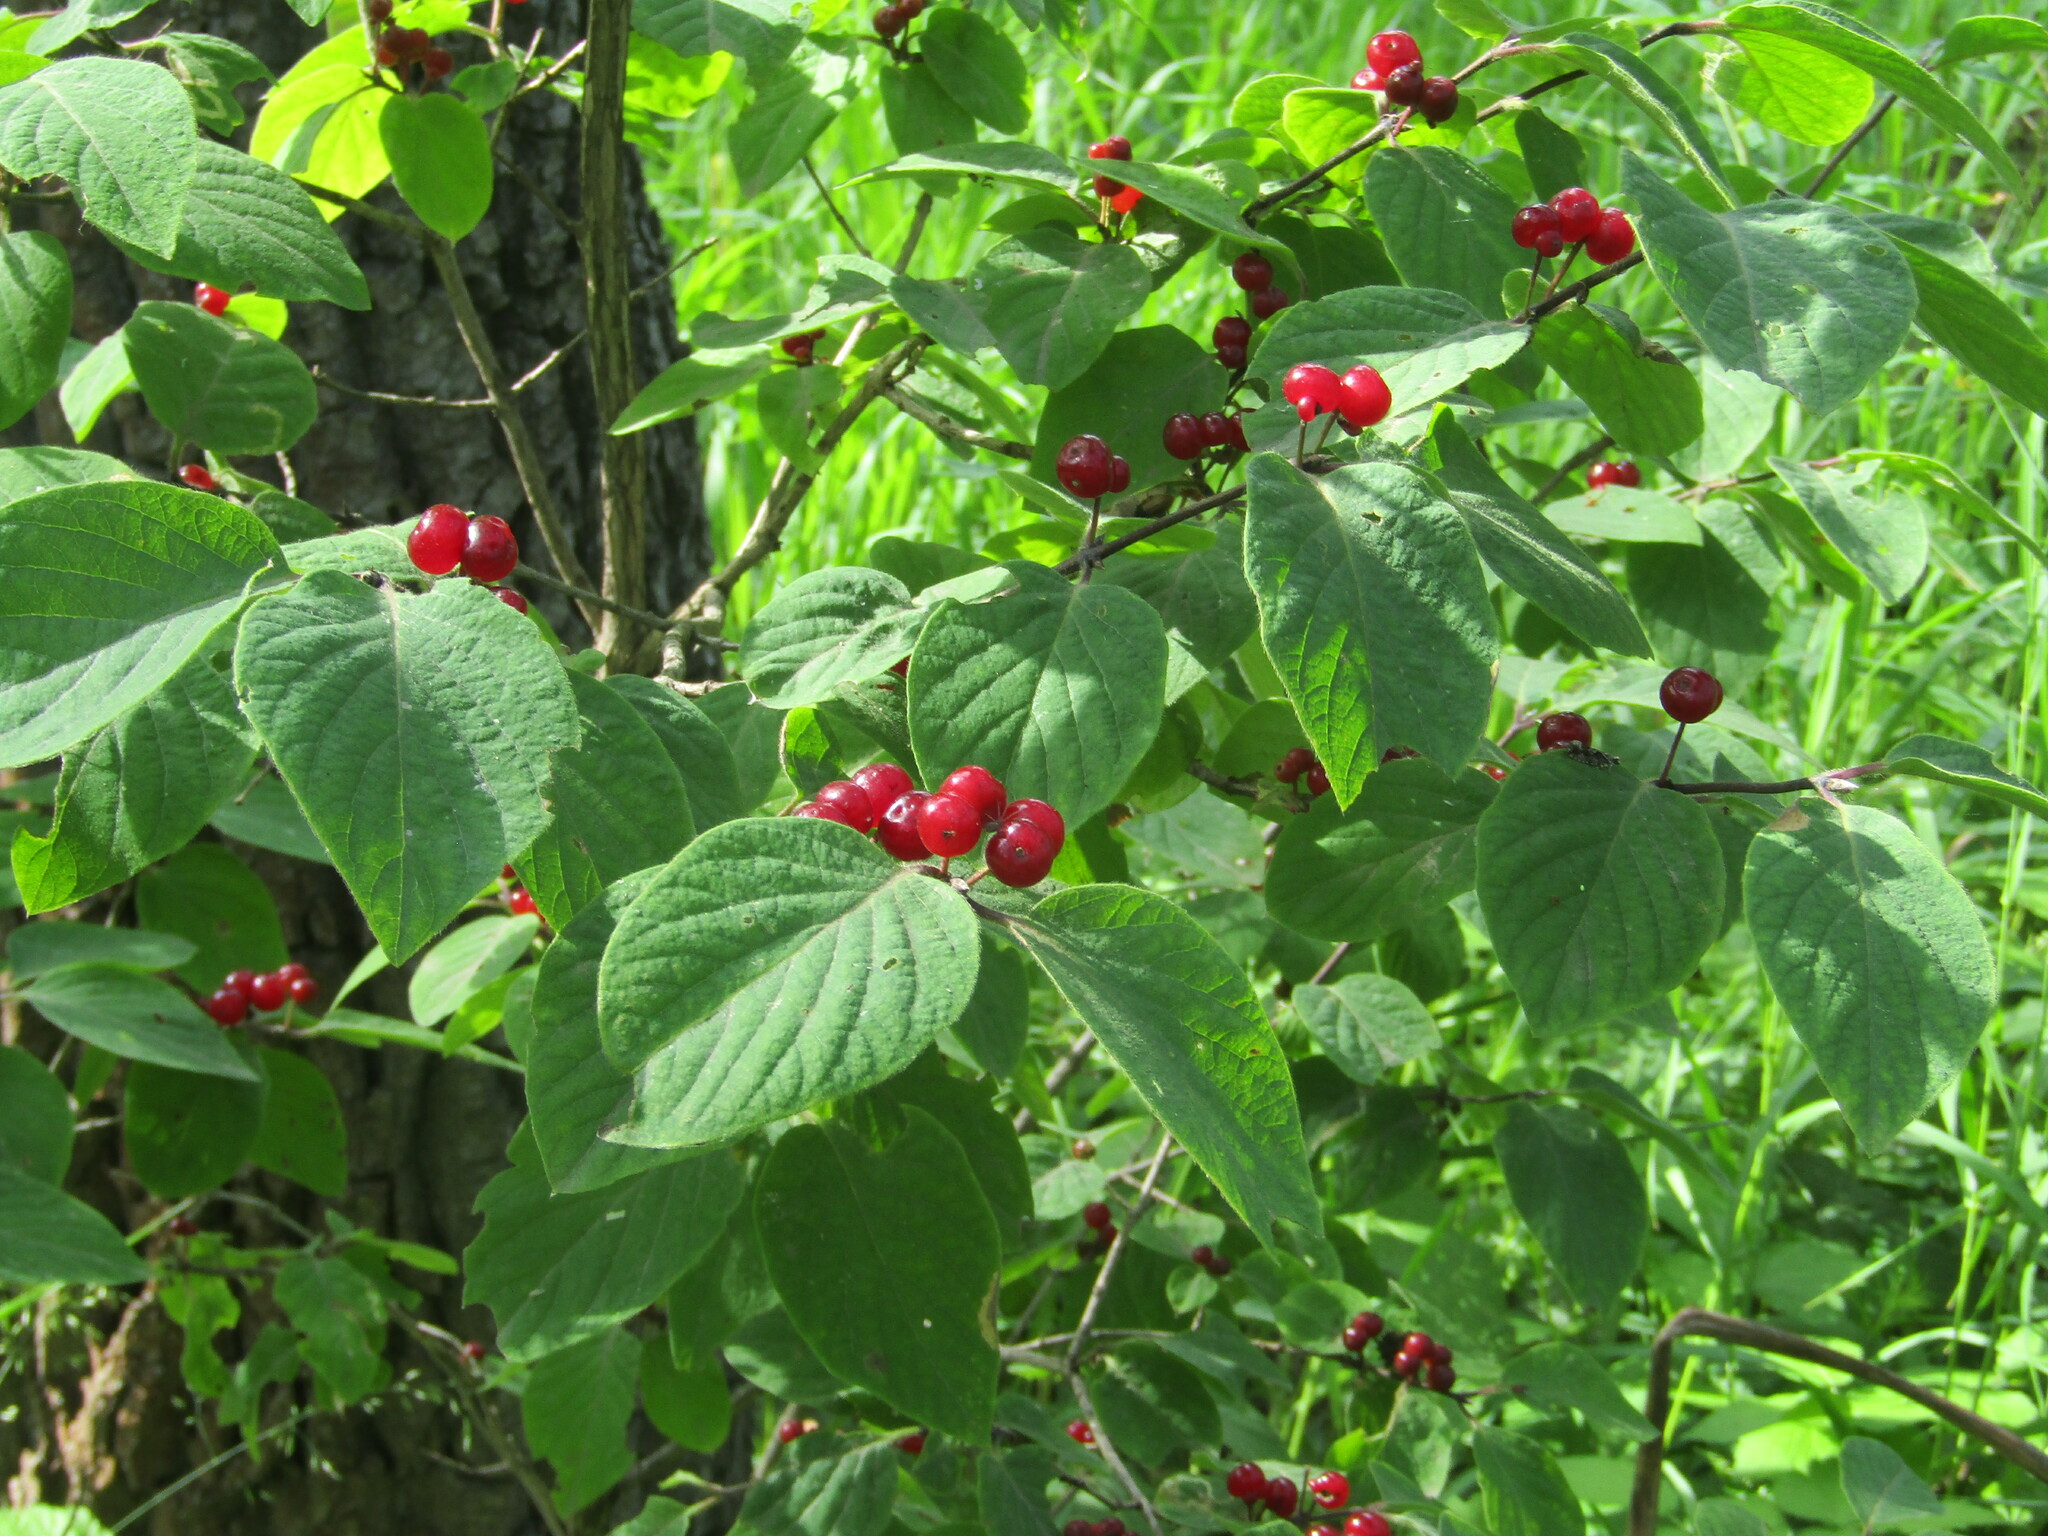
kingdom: Plantae
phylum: Tracheophyta
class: Magnoliopsida
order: Dipsacales
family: Caprifoliaceae
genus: Lonicera
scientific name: Lonicera xylosteum
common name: Fly honeysuckle
